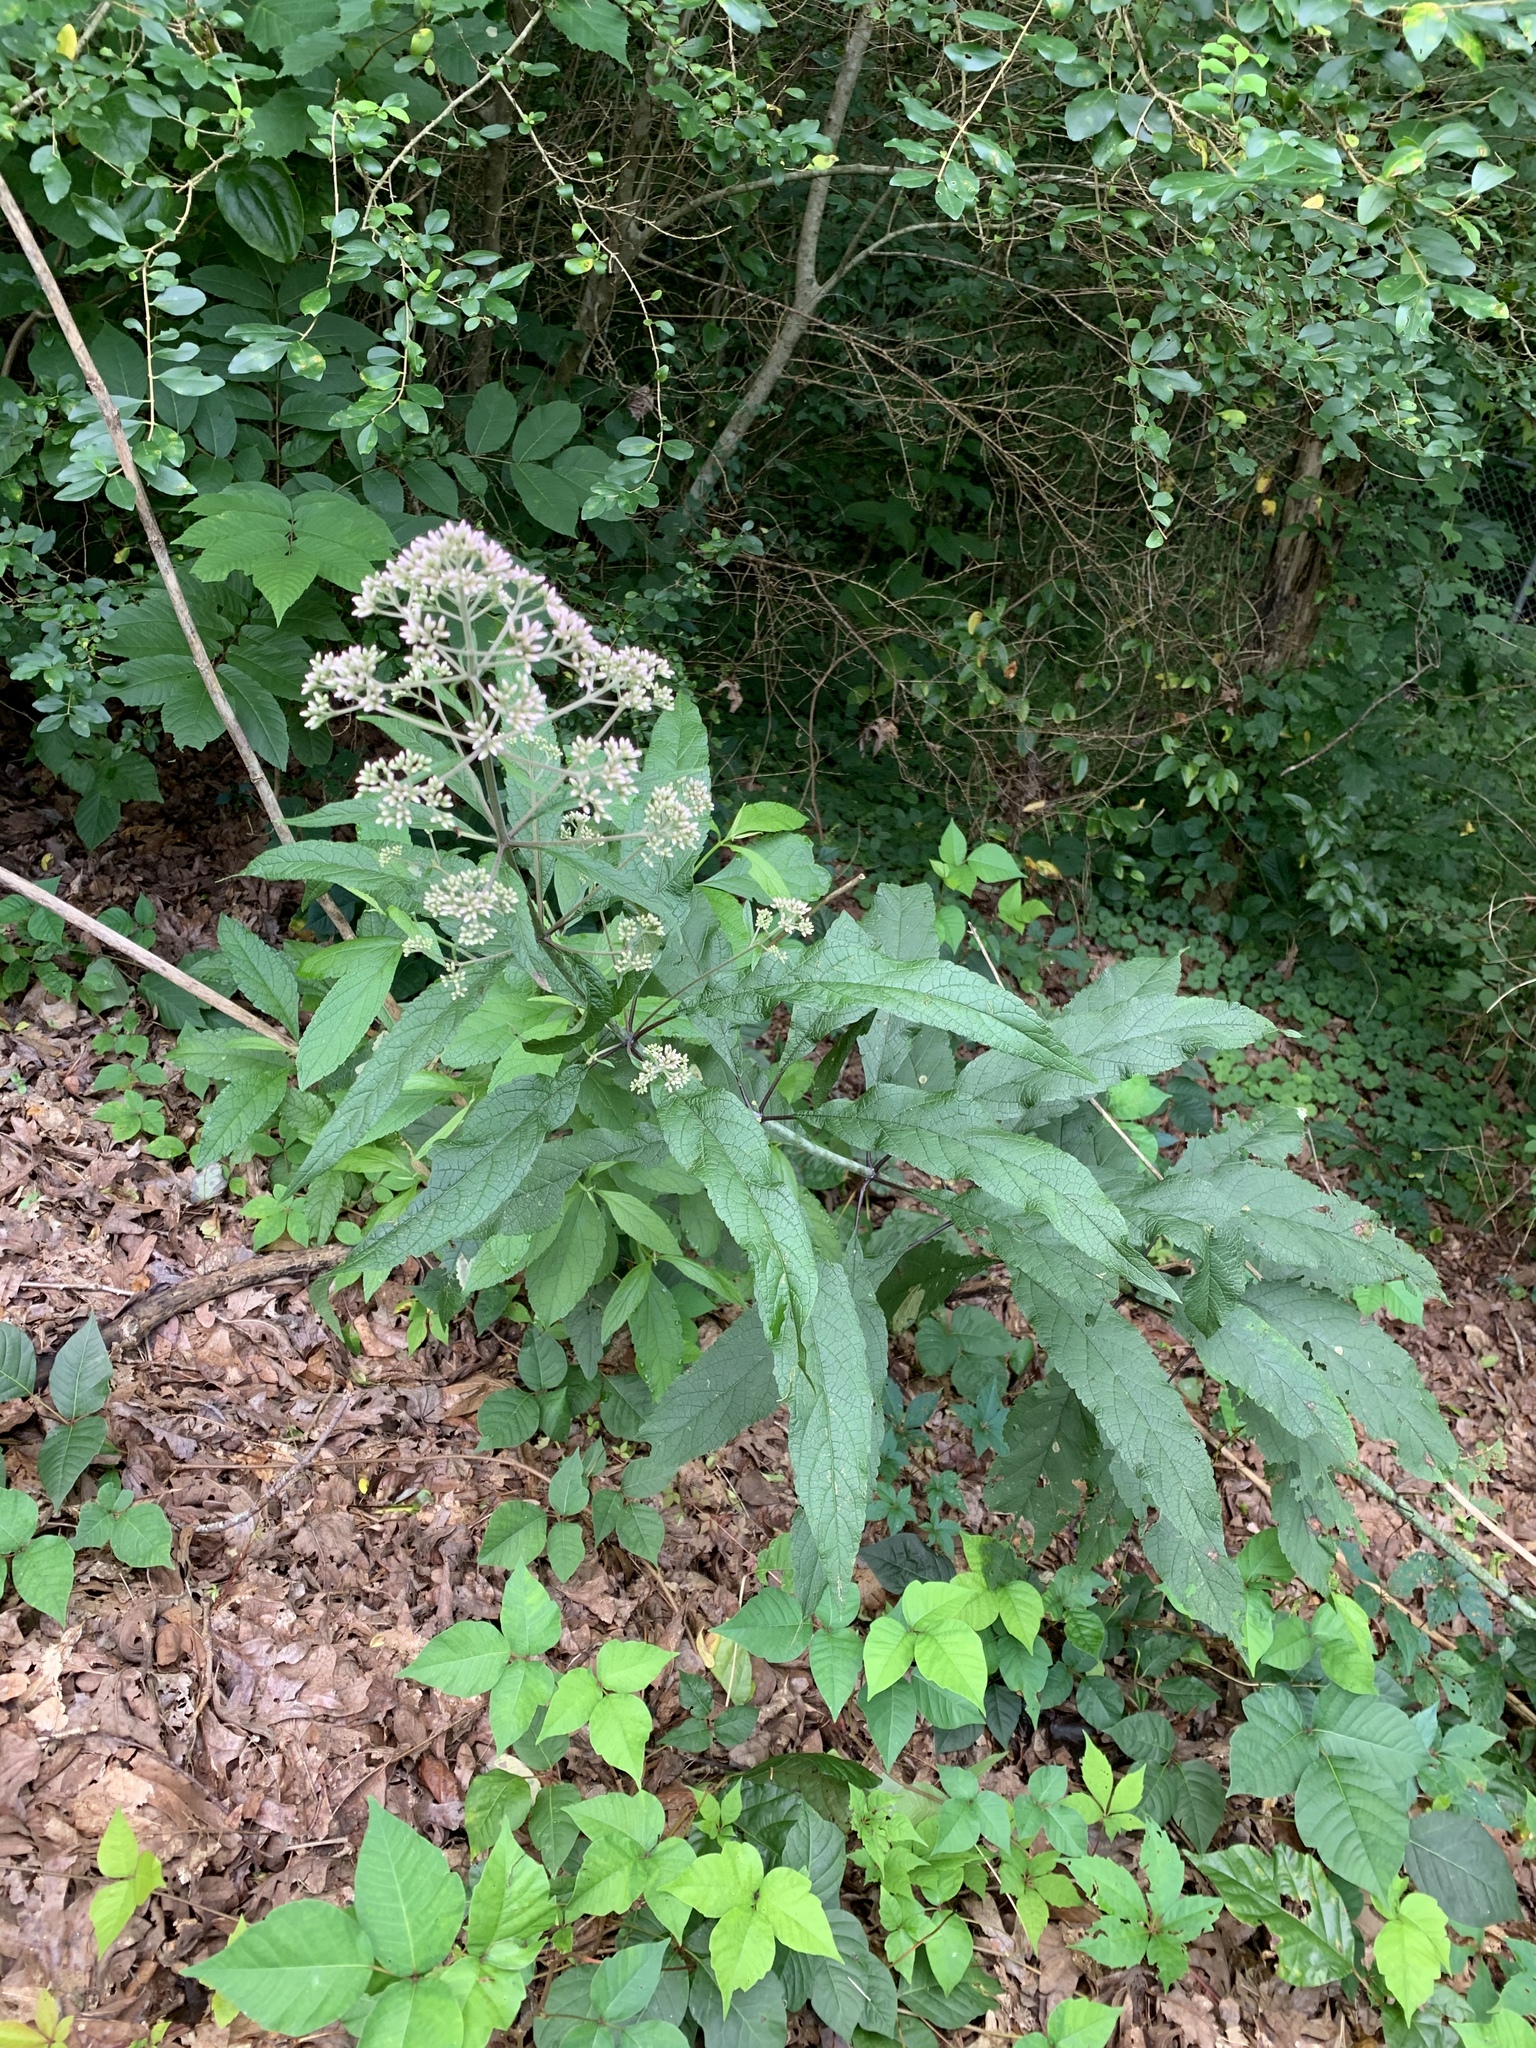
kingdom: Plantae
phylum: Tracheophyta
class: Magnoliopsida
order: Asterales
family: Asteraceae
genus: Eutrochium
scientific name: Eutrochium fistulosum
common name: Trumpetweed
